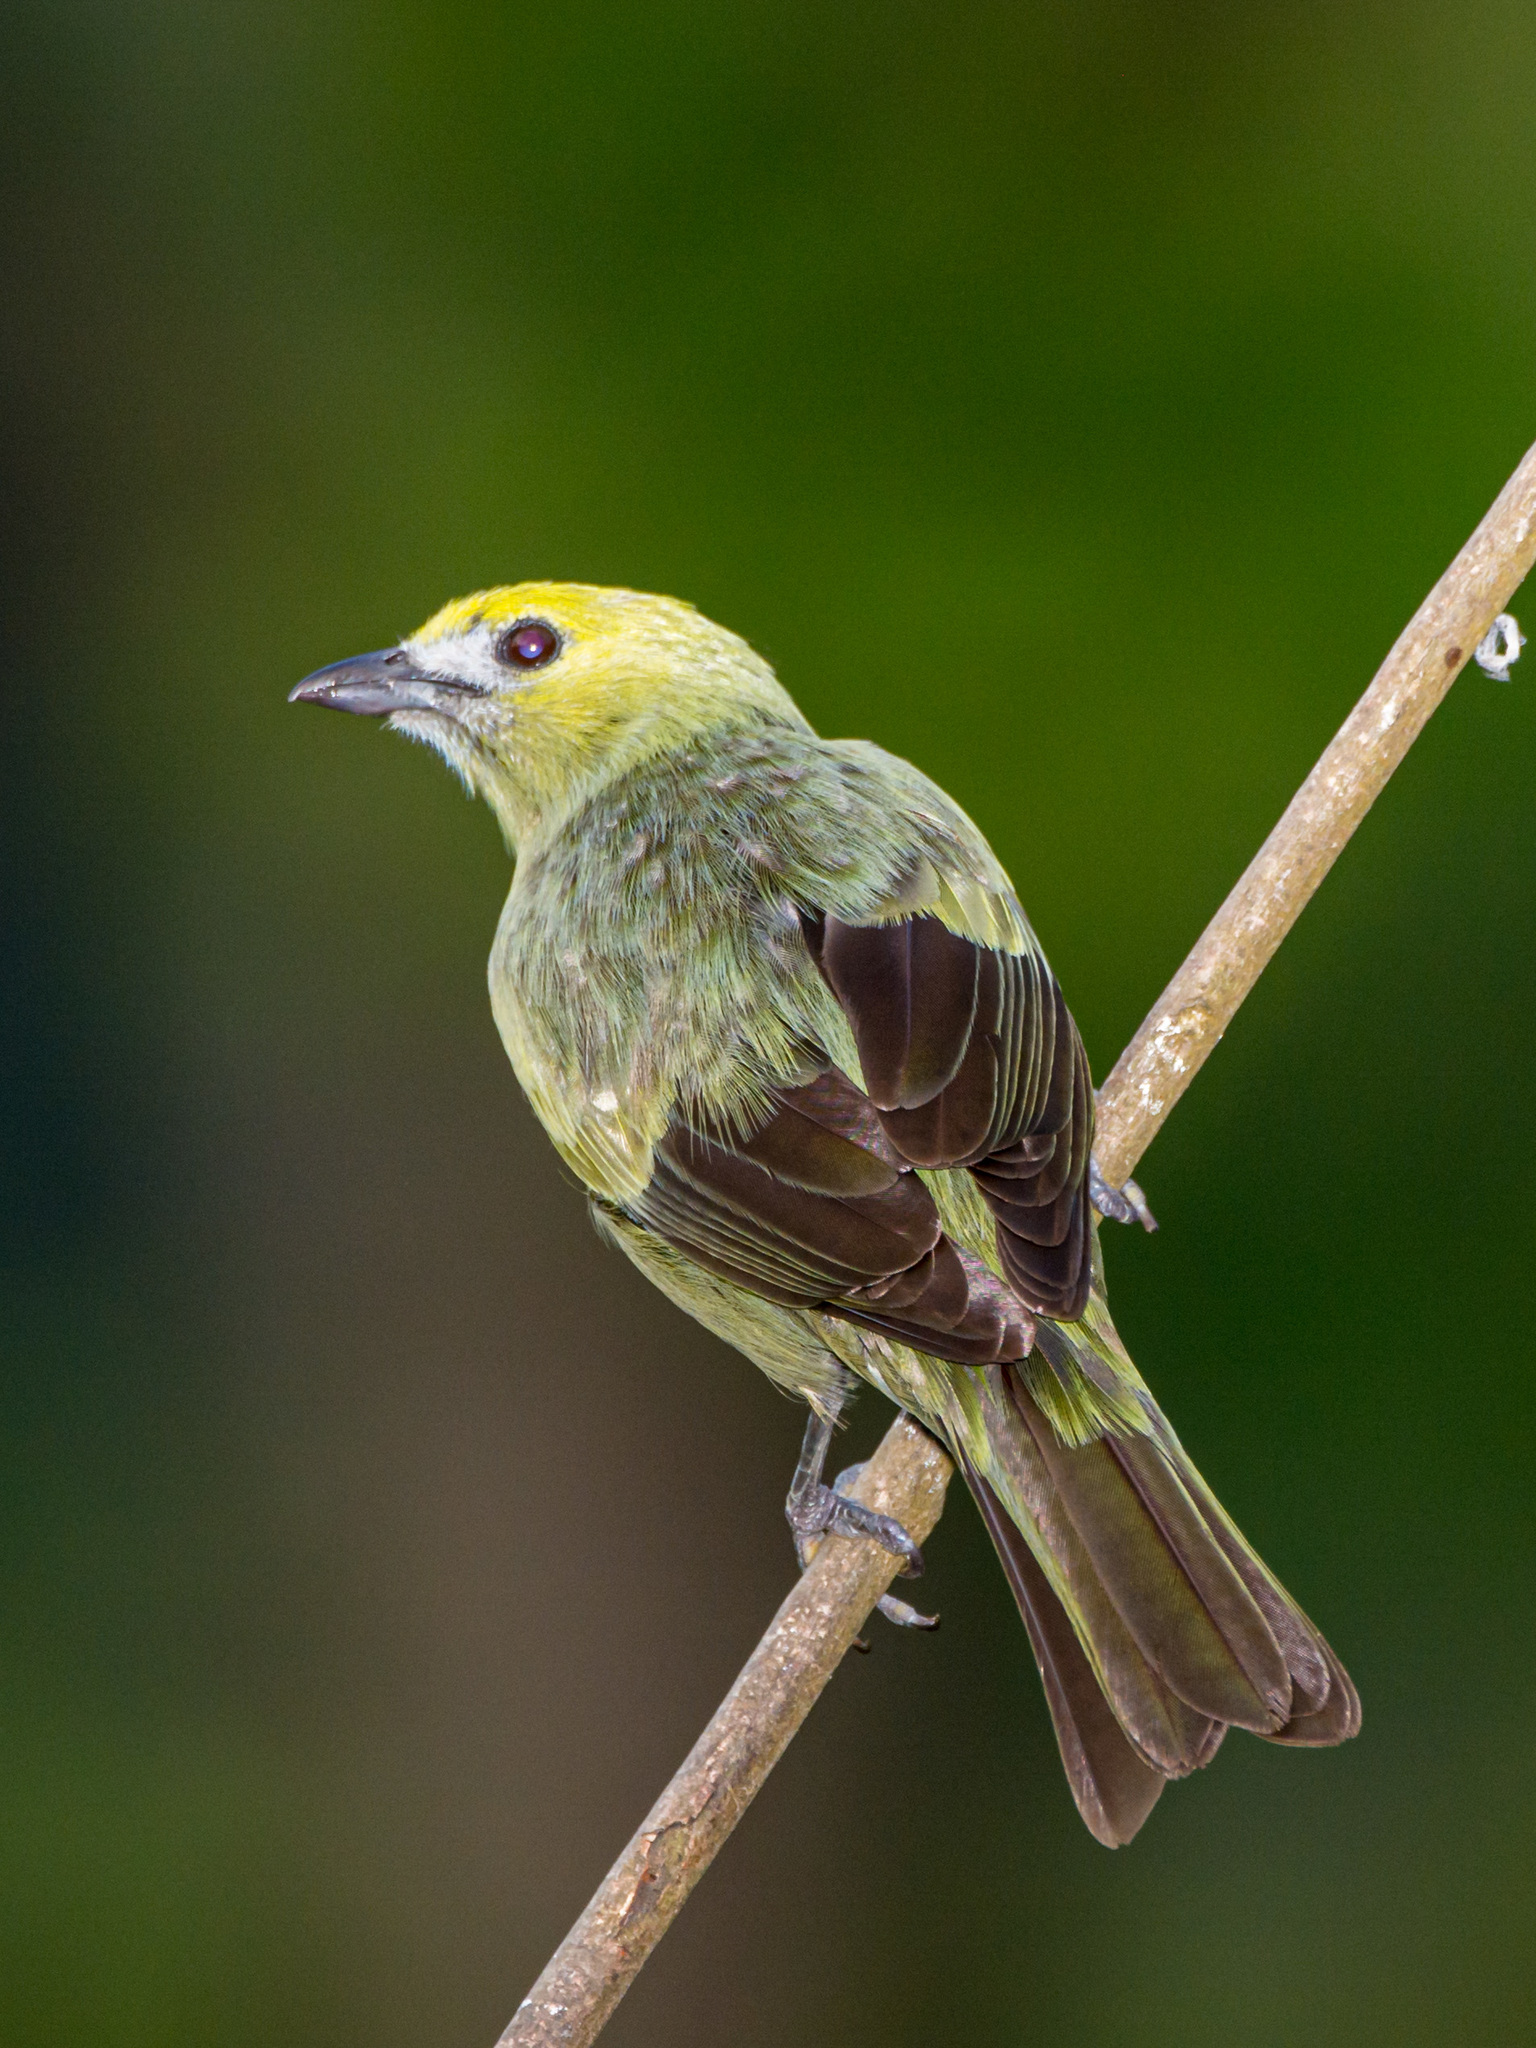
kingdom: Animalia
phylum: Chordata
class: Aves
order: Passeriformes
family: Thraupidae
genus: Thraupis
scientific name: Thraupis palmarum
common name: Palm tanager
